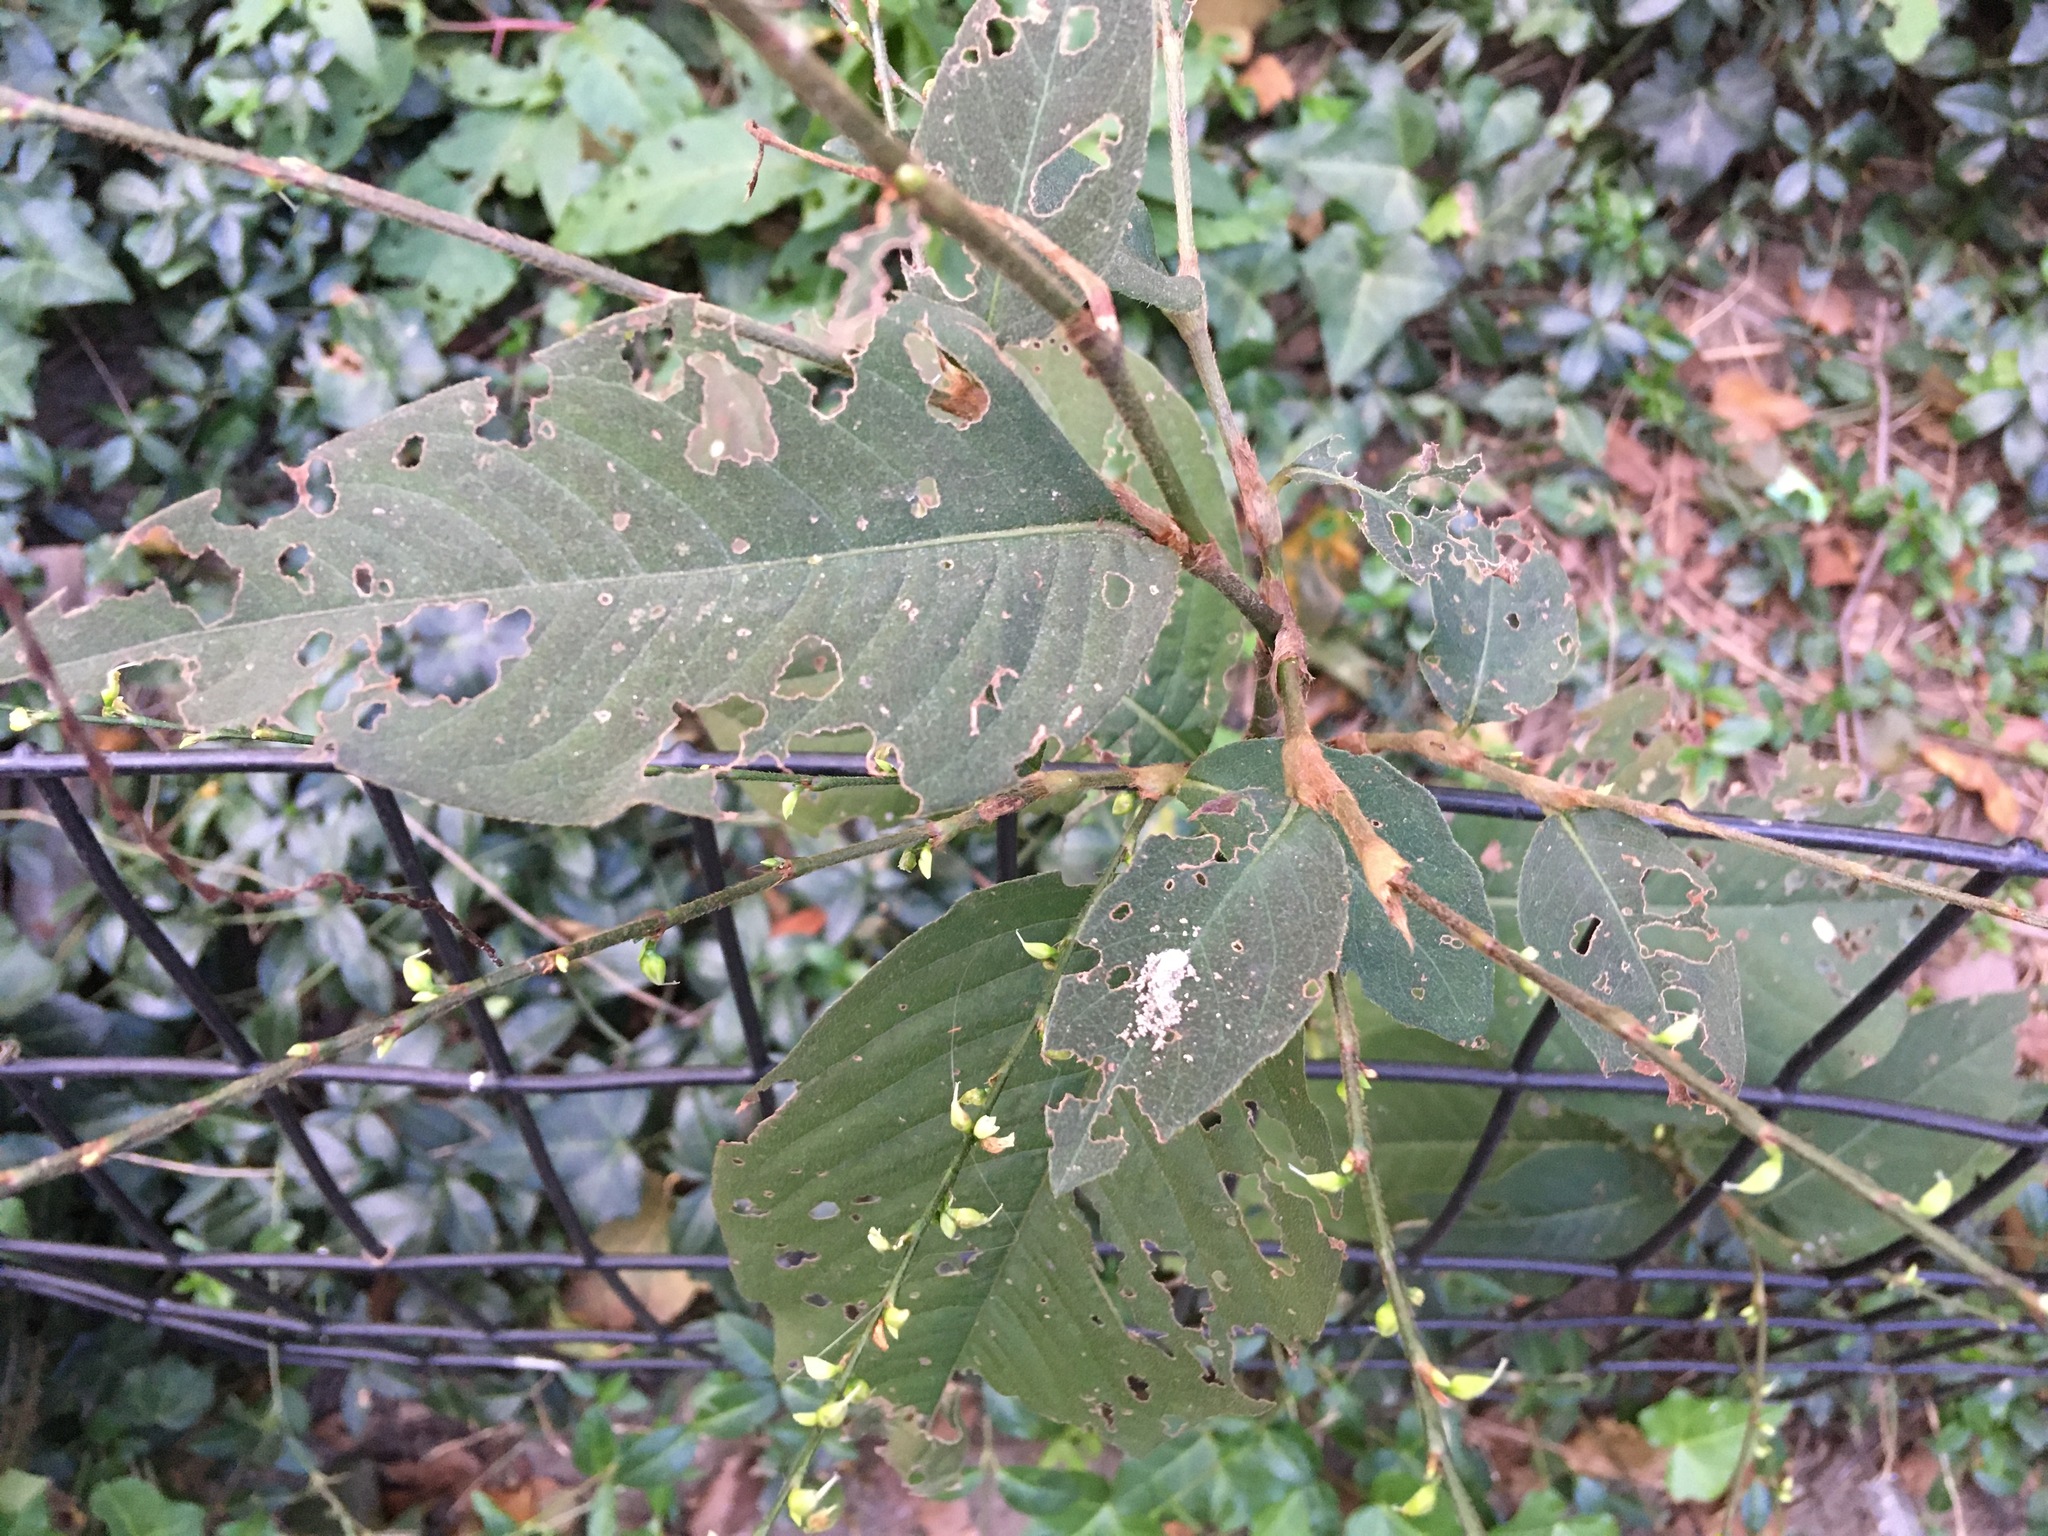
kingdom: Plantae
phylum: Tracheophyta
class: Magnoliopsida
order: Caryophyllales
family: Polygonaceae
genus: Persicaria
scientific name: Persicaria virginiana
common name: Jumpseed
